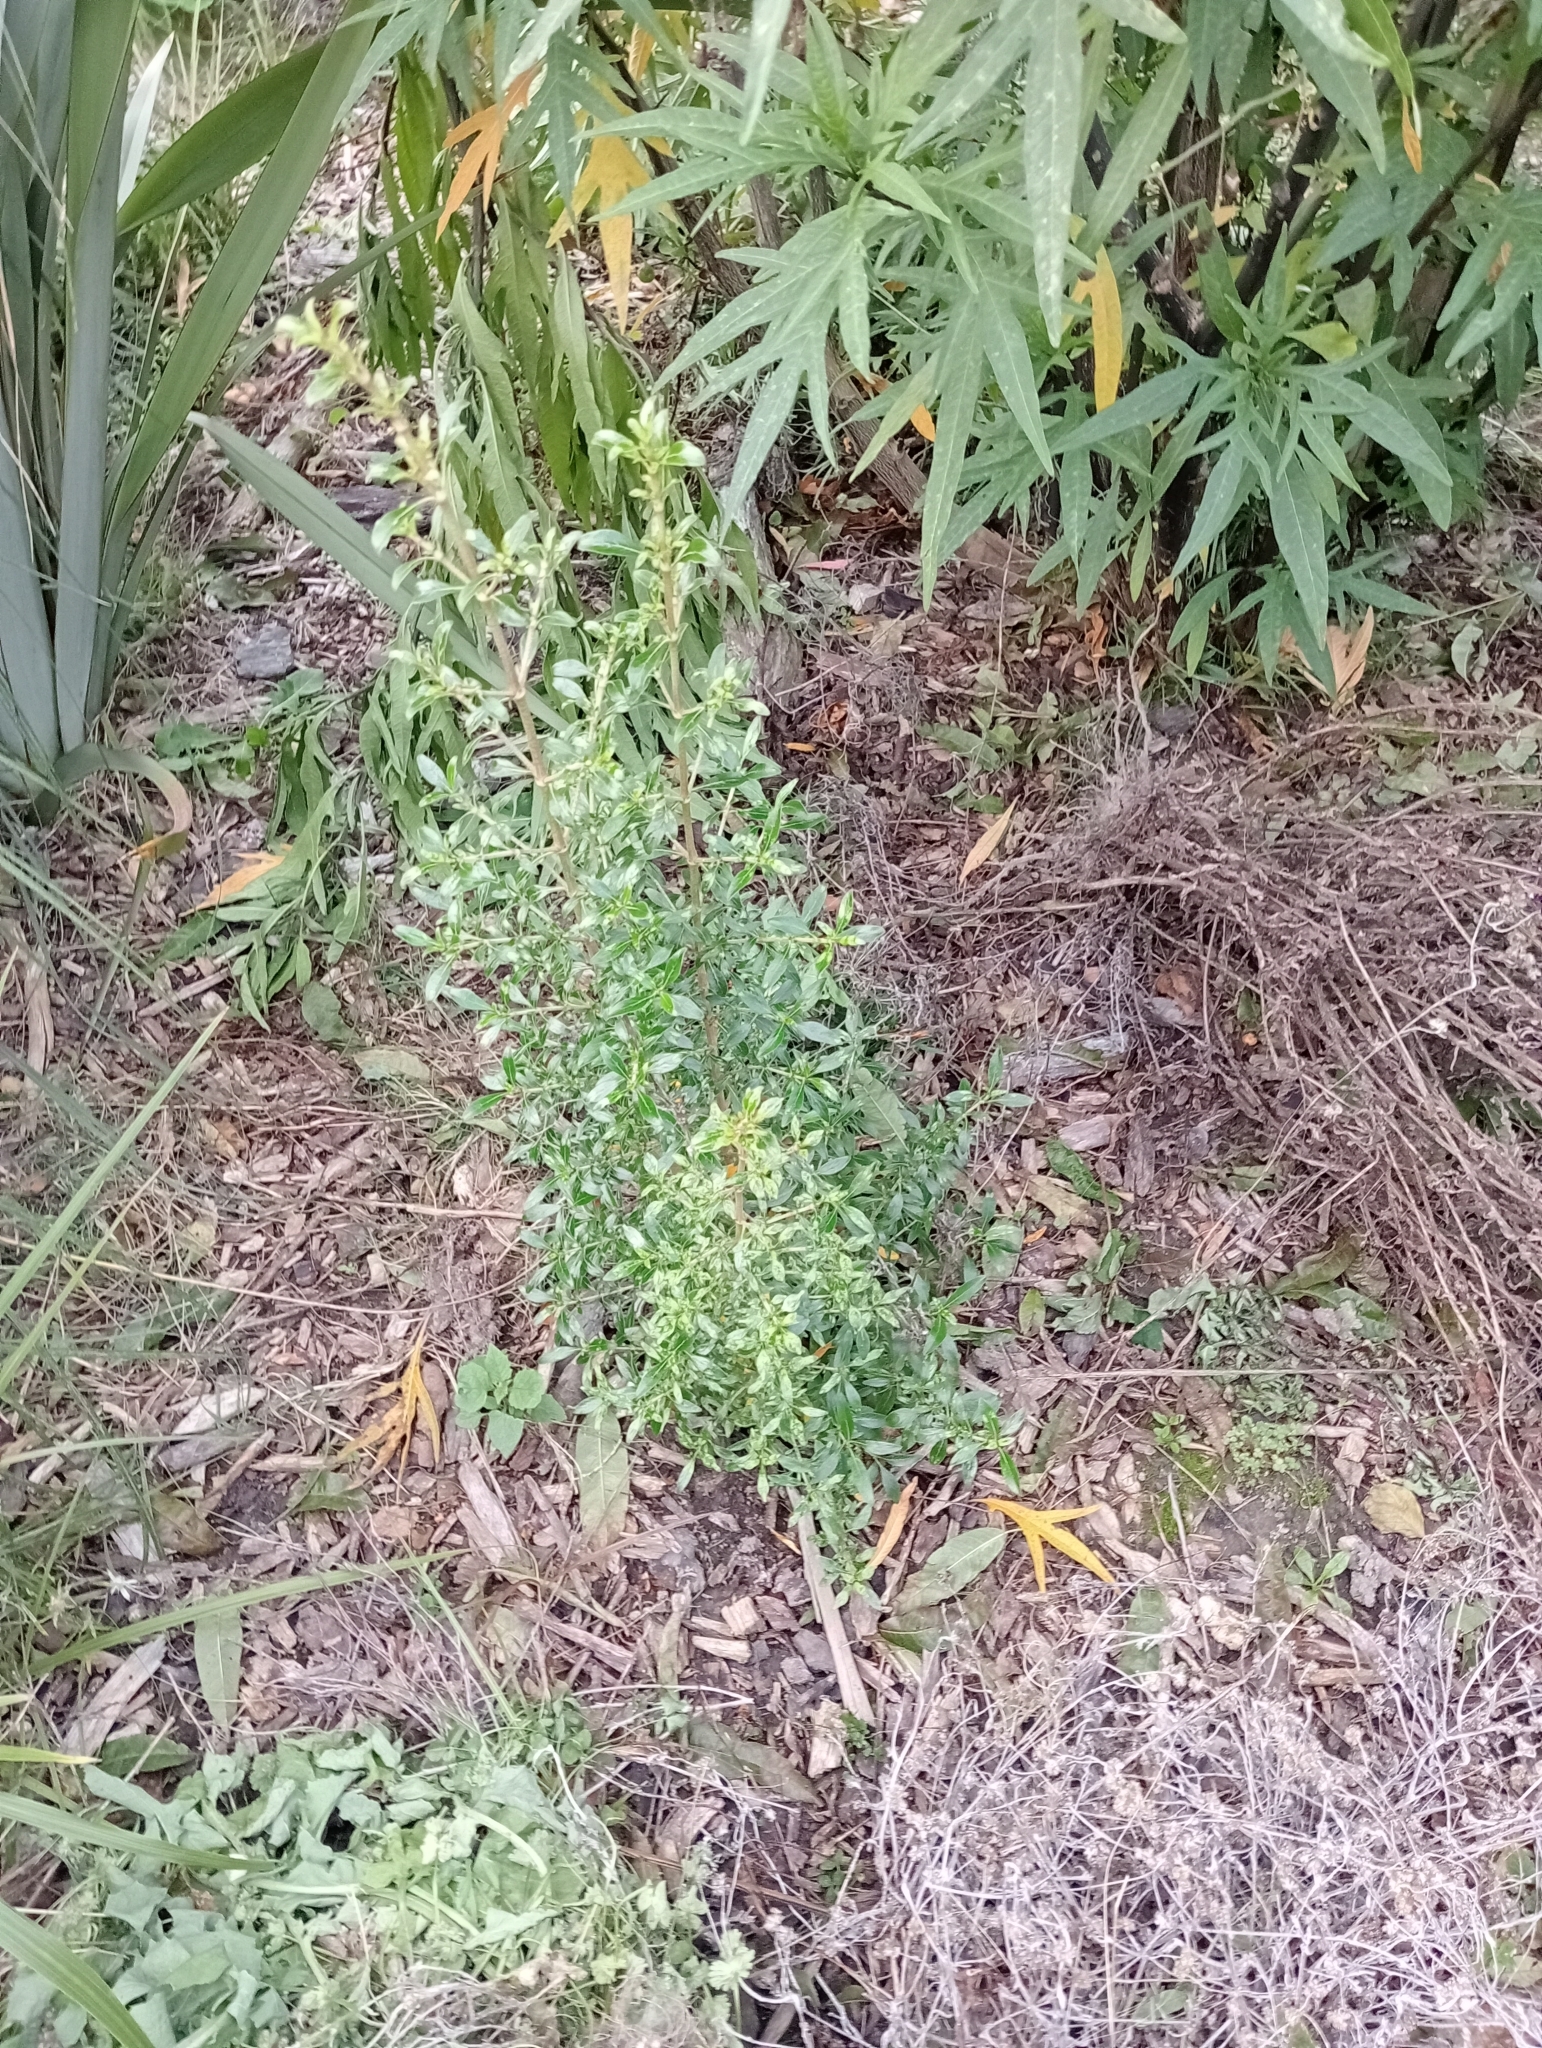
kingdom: Plantae
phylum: Tracheophyta
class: Magnoliopsida
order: Gentianales
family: Rubiaceae
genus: Coprosma
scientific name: Coprosma cunninghamii
